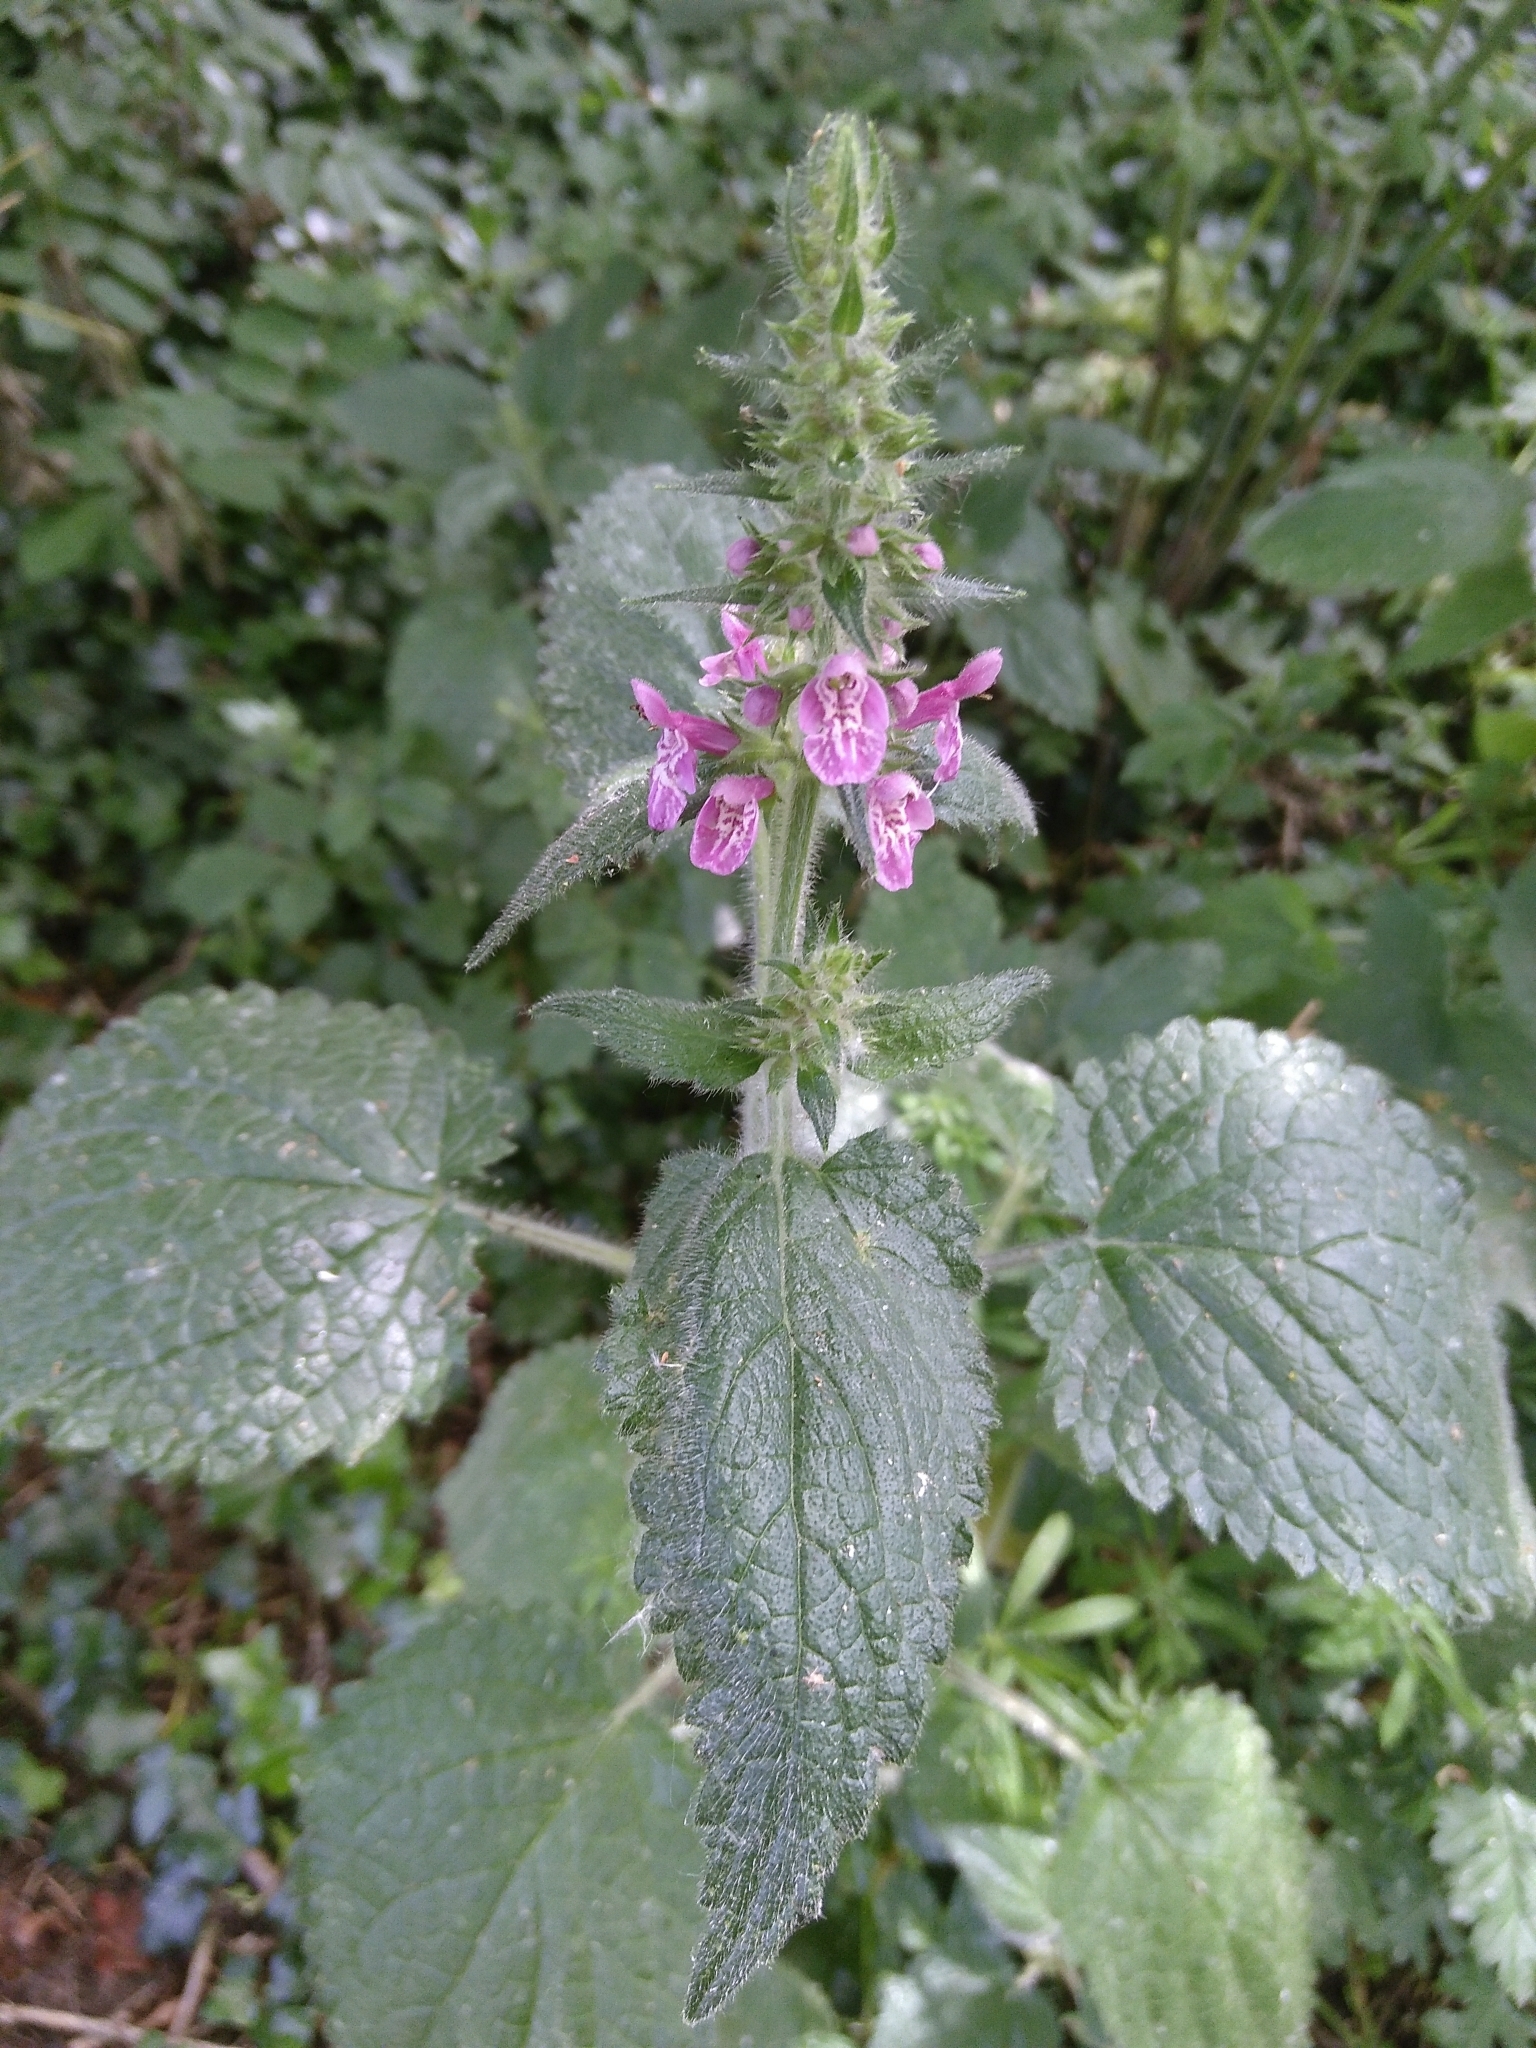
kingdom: Plantae
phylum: Tracheophyta
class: Magnoliopsida
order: Lamiales
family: Lamiaceae
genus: Stachys
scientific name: Stachys sylvatica
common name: Hedge woundwort
